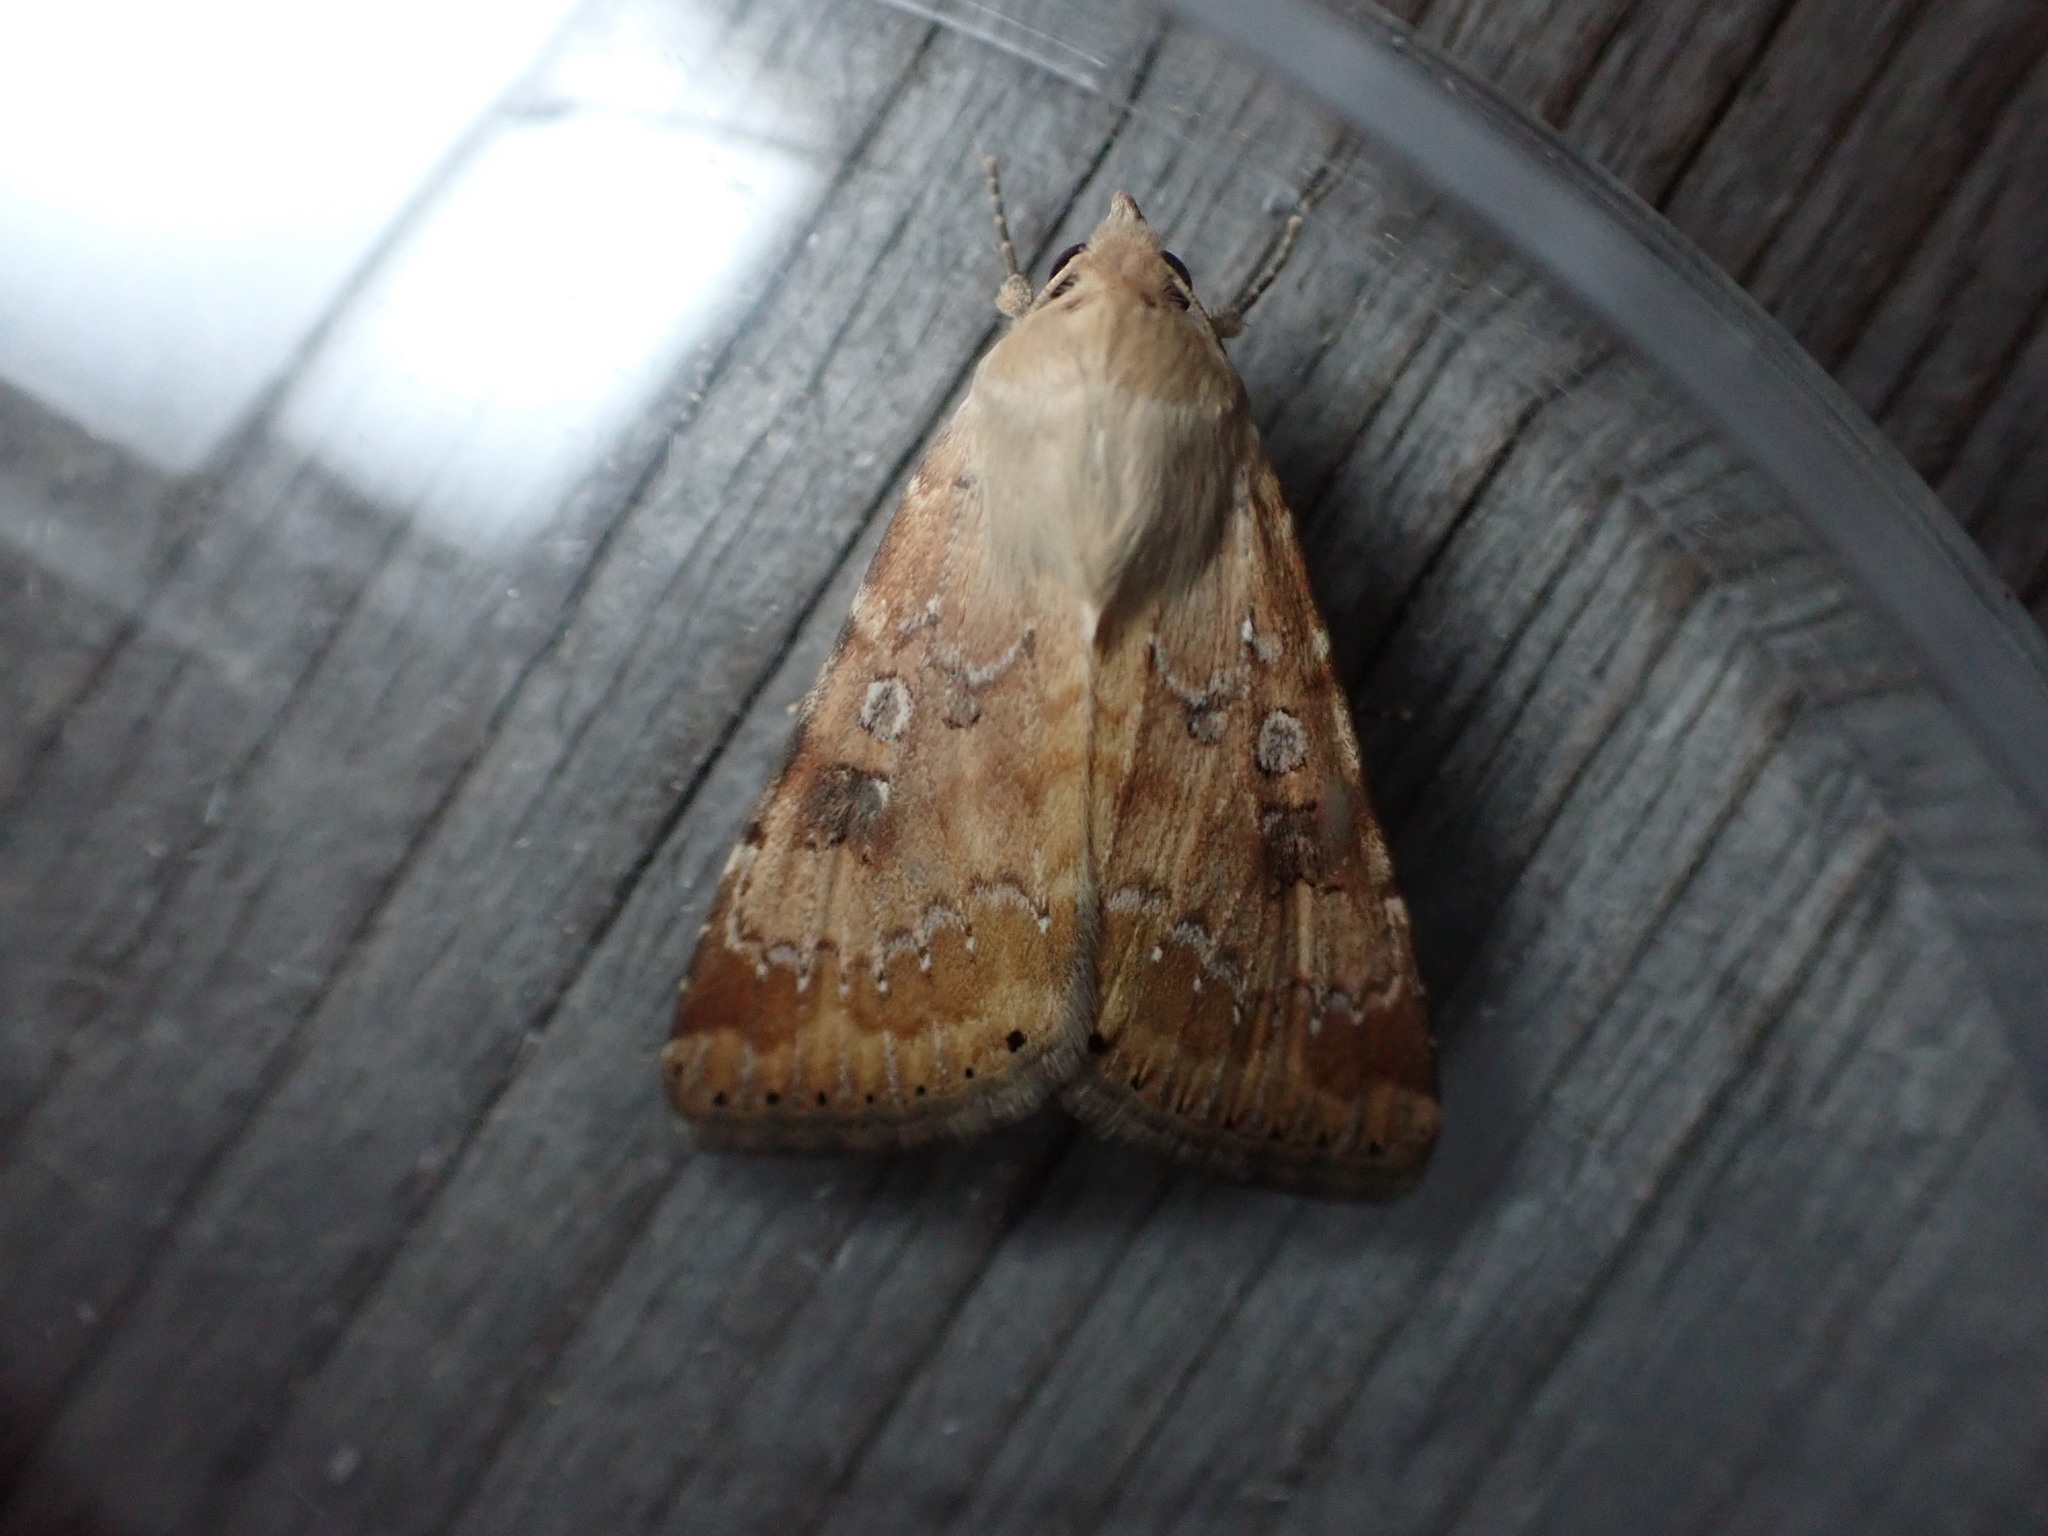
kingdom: Animalia
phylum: Arthropoda
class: Insecta
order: Lepidoptera
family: Noctuidae
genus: Heliothis
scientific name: Heliothis nubigera
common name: Eastern bordered straw
